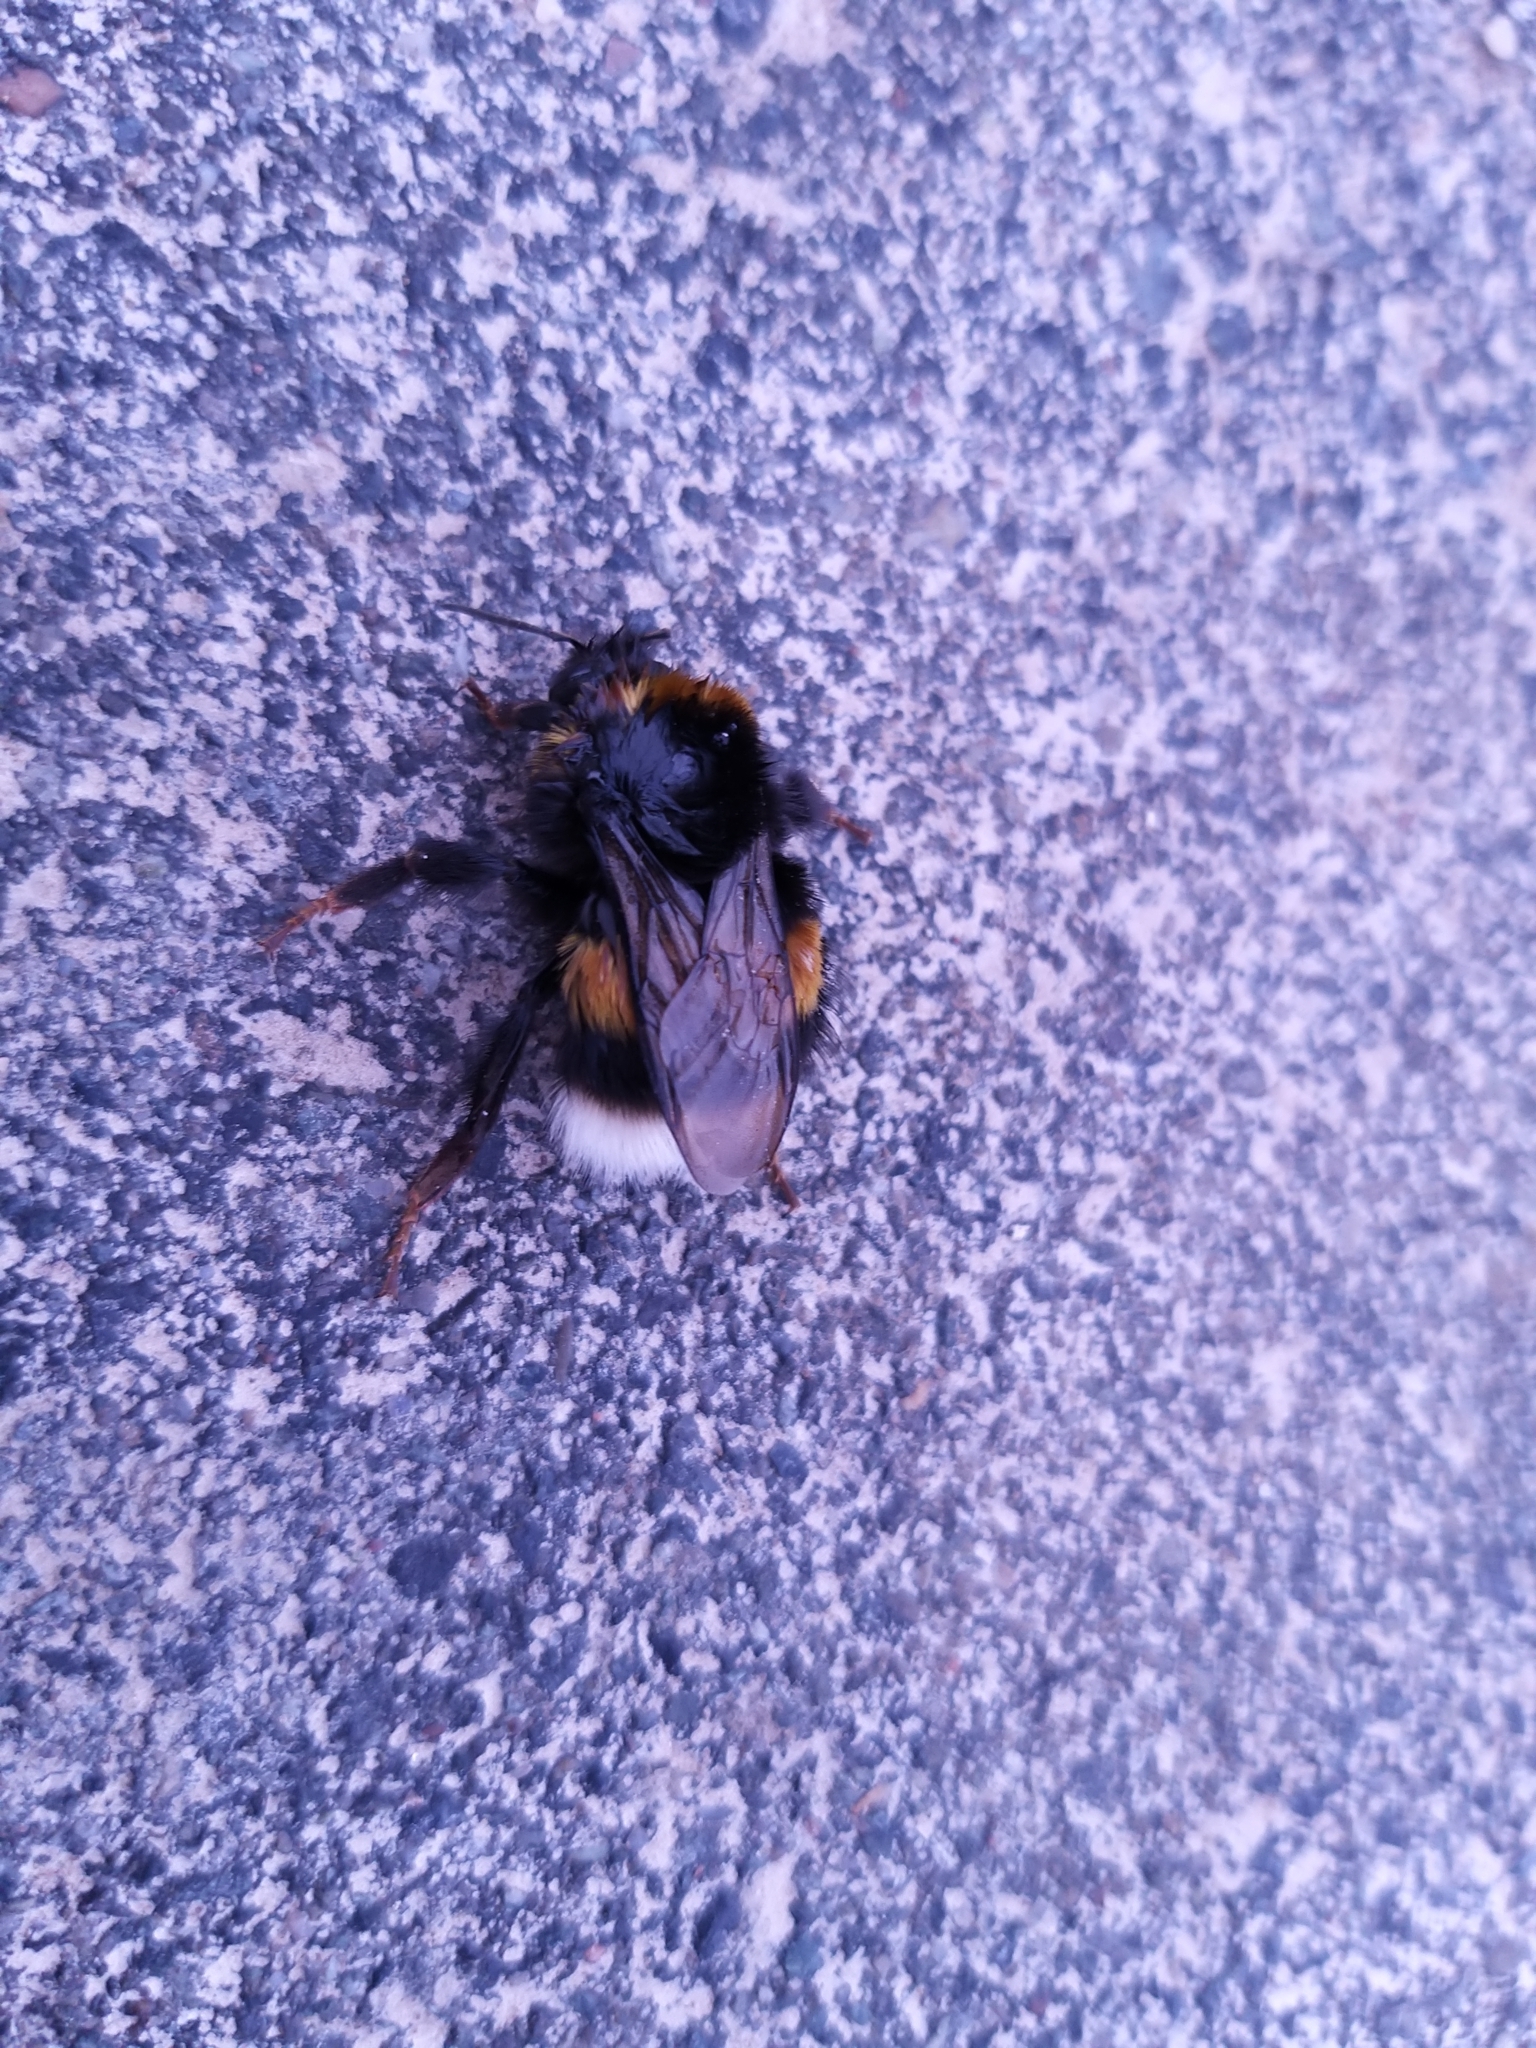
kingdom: Animalia
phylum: Arthropoda
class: Insecta
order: Hymenoptera
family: Apidae
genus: Bombus
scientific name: Bombus terrestris
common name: Buff-tailed bumblebee
